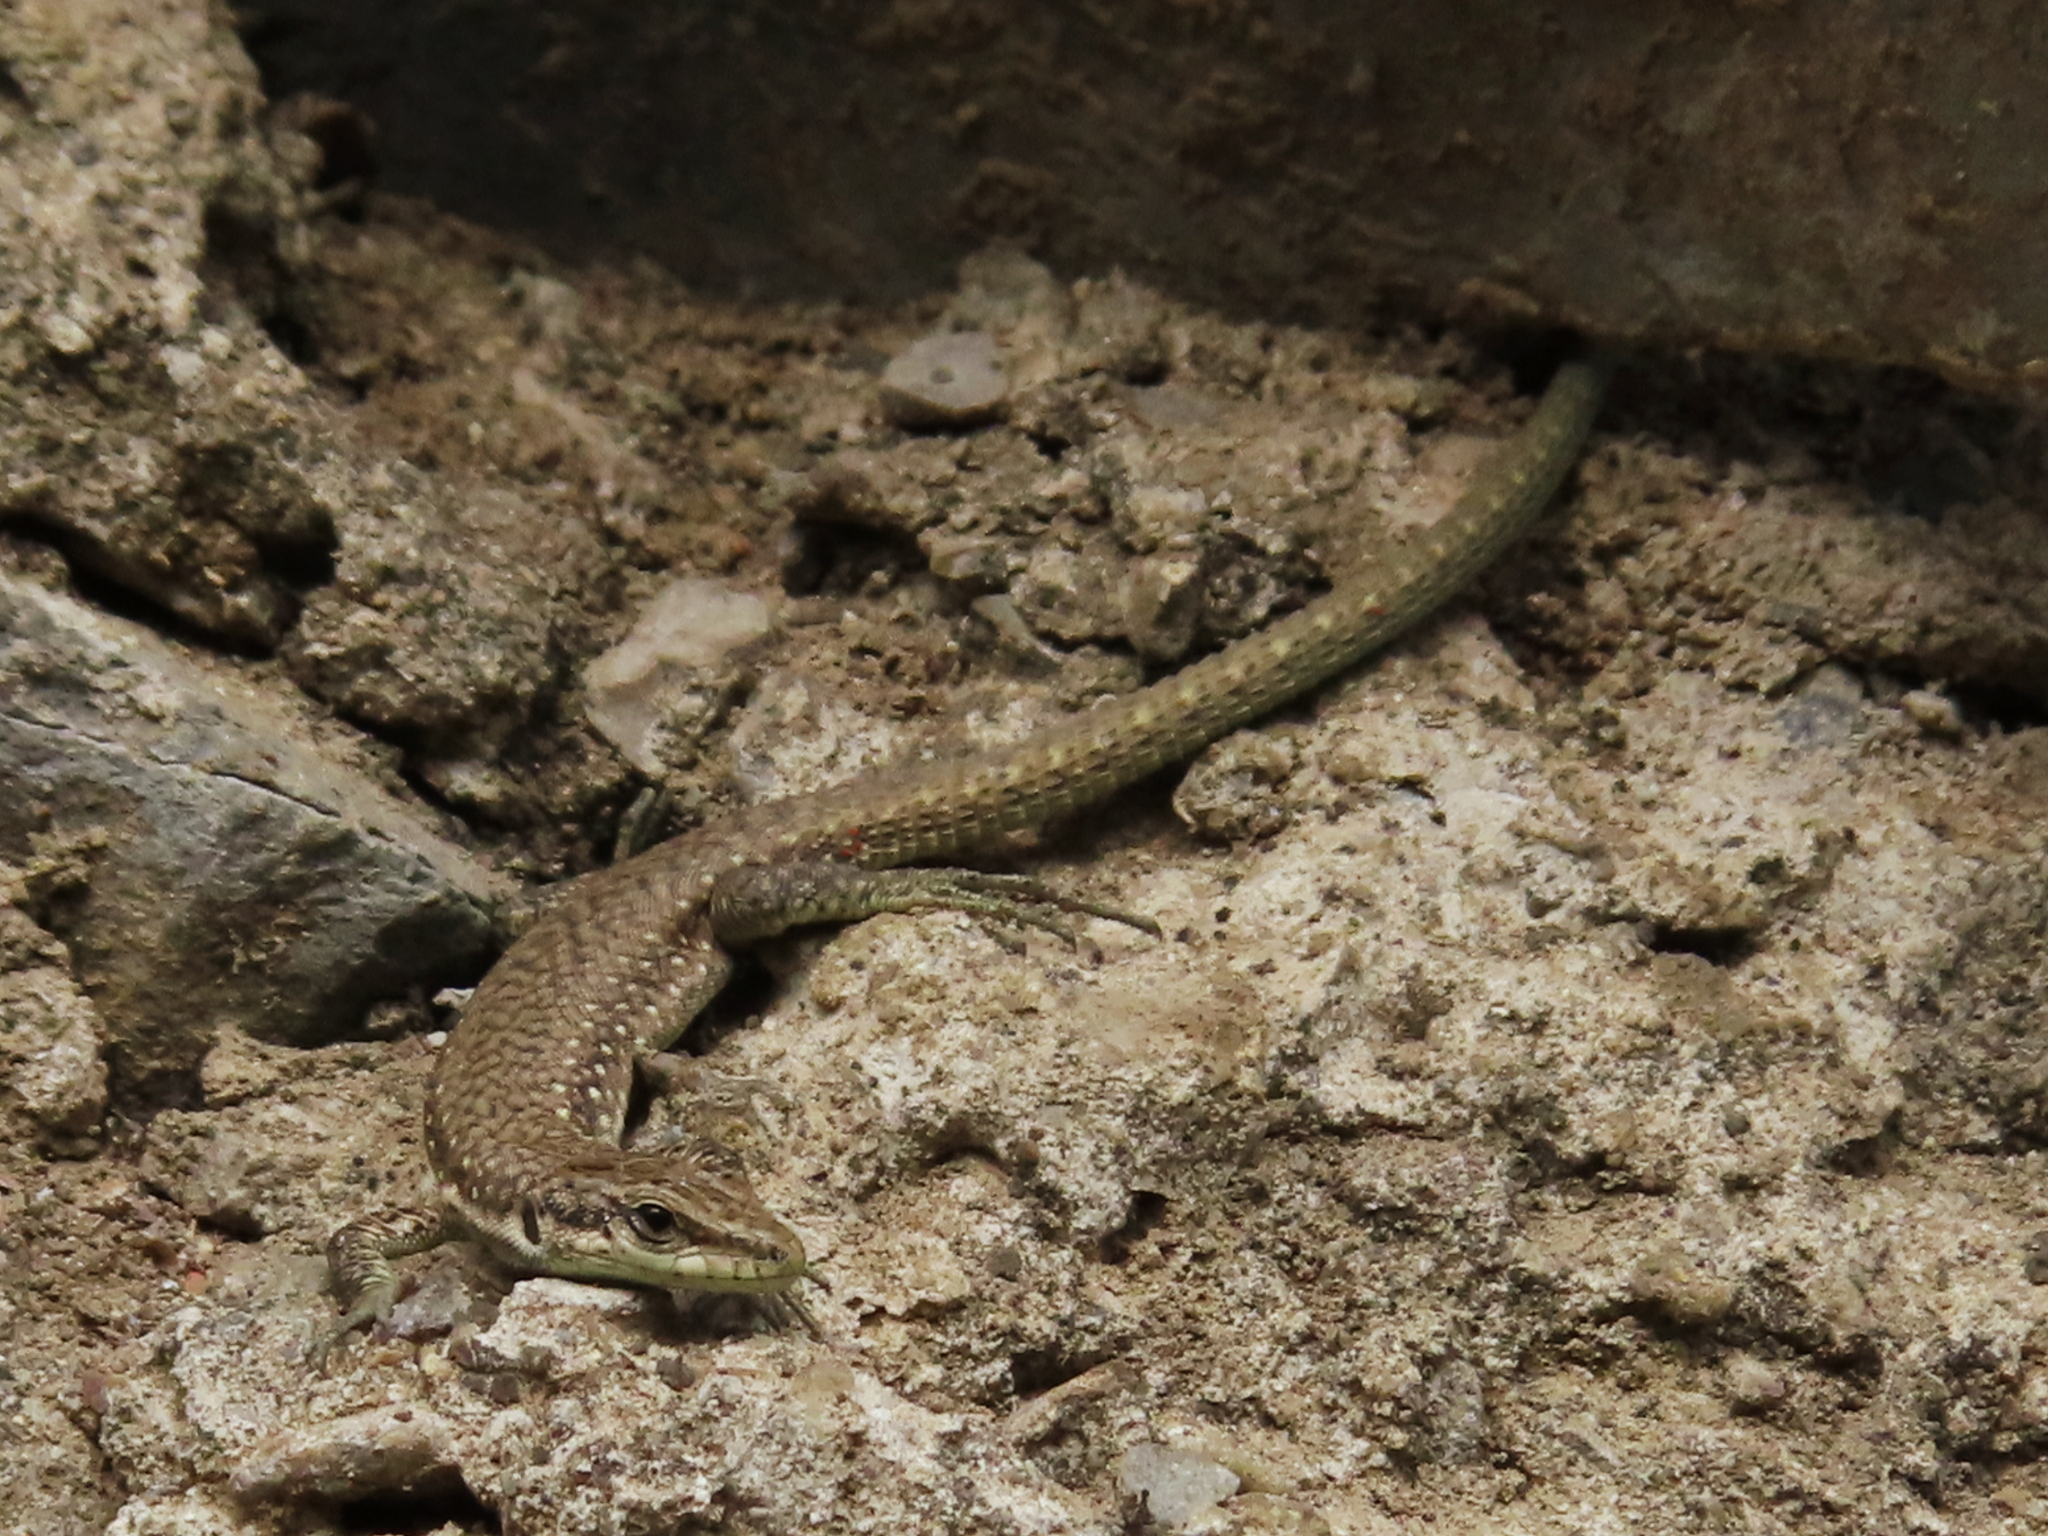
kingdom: Animalia
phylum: Chordata
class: Squamata
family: Lacertidae
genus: Darevskia
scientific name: Darevskia portschinskii
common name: River kura lizard
